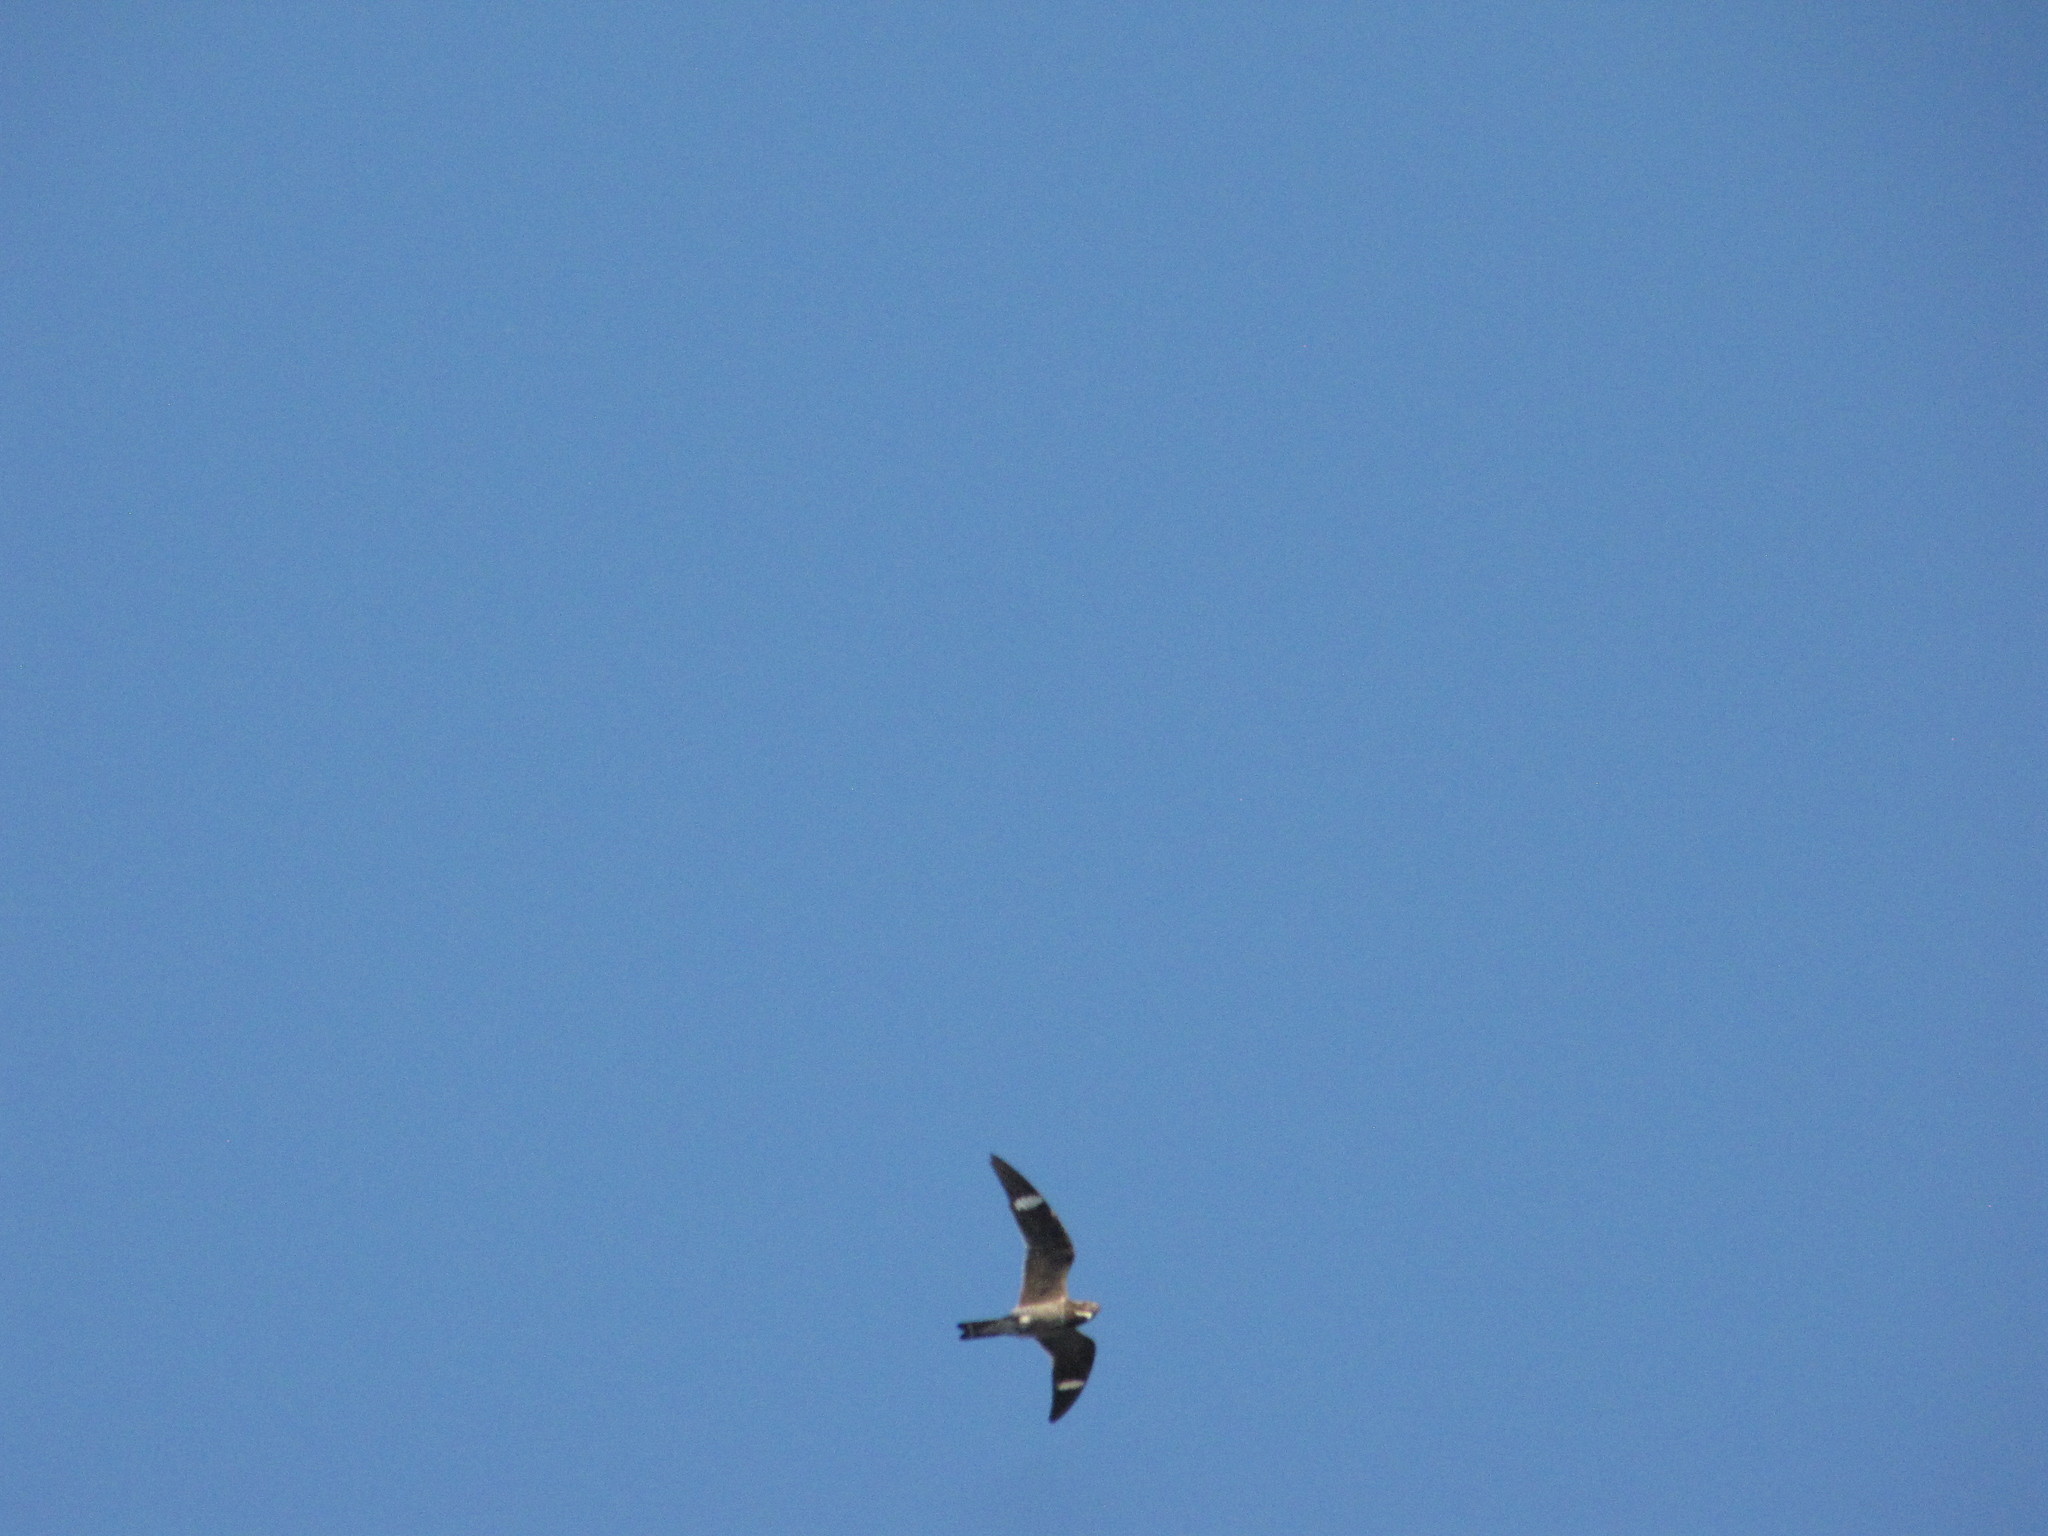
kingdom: Animalia
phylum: Chordata
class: Aves
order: Caprimulgiformes
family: Caprimulgidae
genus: Chordeiles
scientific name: Chordeiles minor
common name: Common nighthawk
